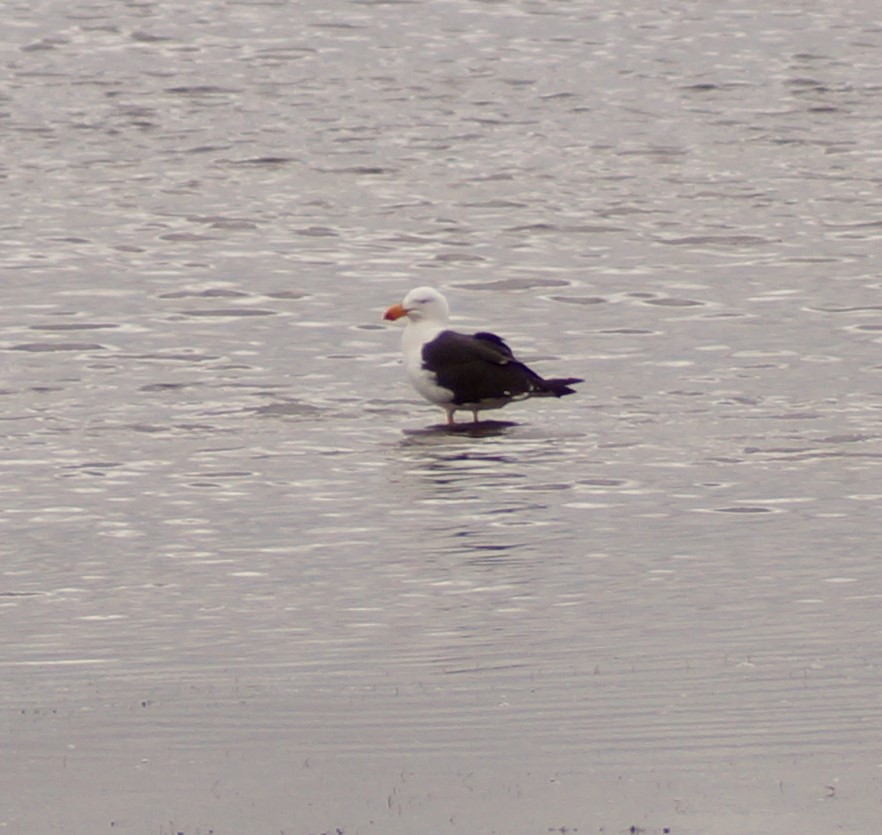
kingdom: Animalia
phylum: Chordata
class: Aves
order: Charadriiformes
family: Laridae
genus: Larus
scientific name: Larus pacificus
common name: Pacific gull
